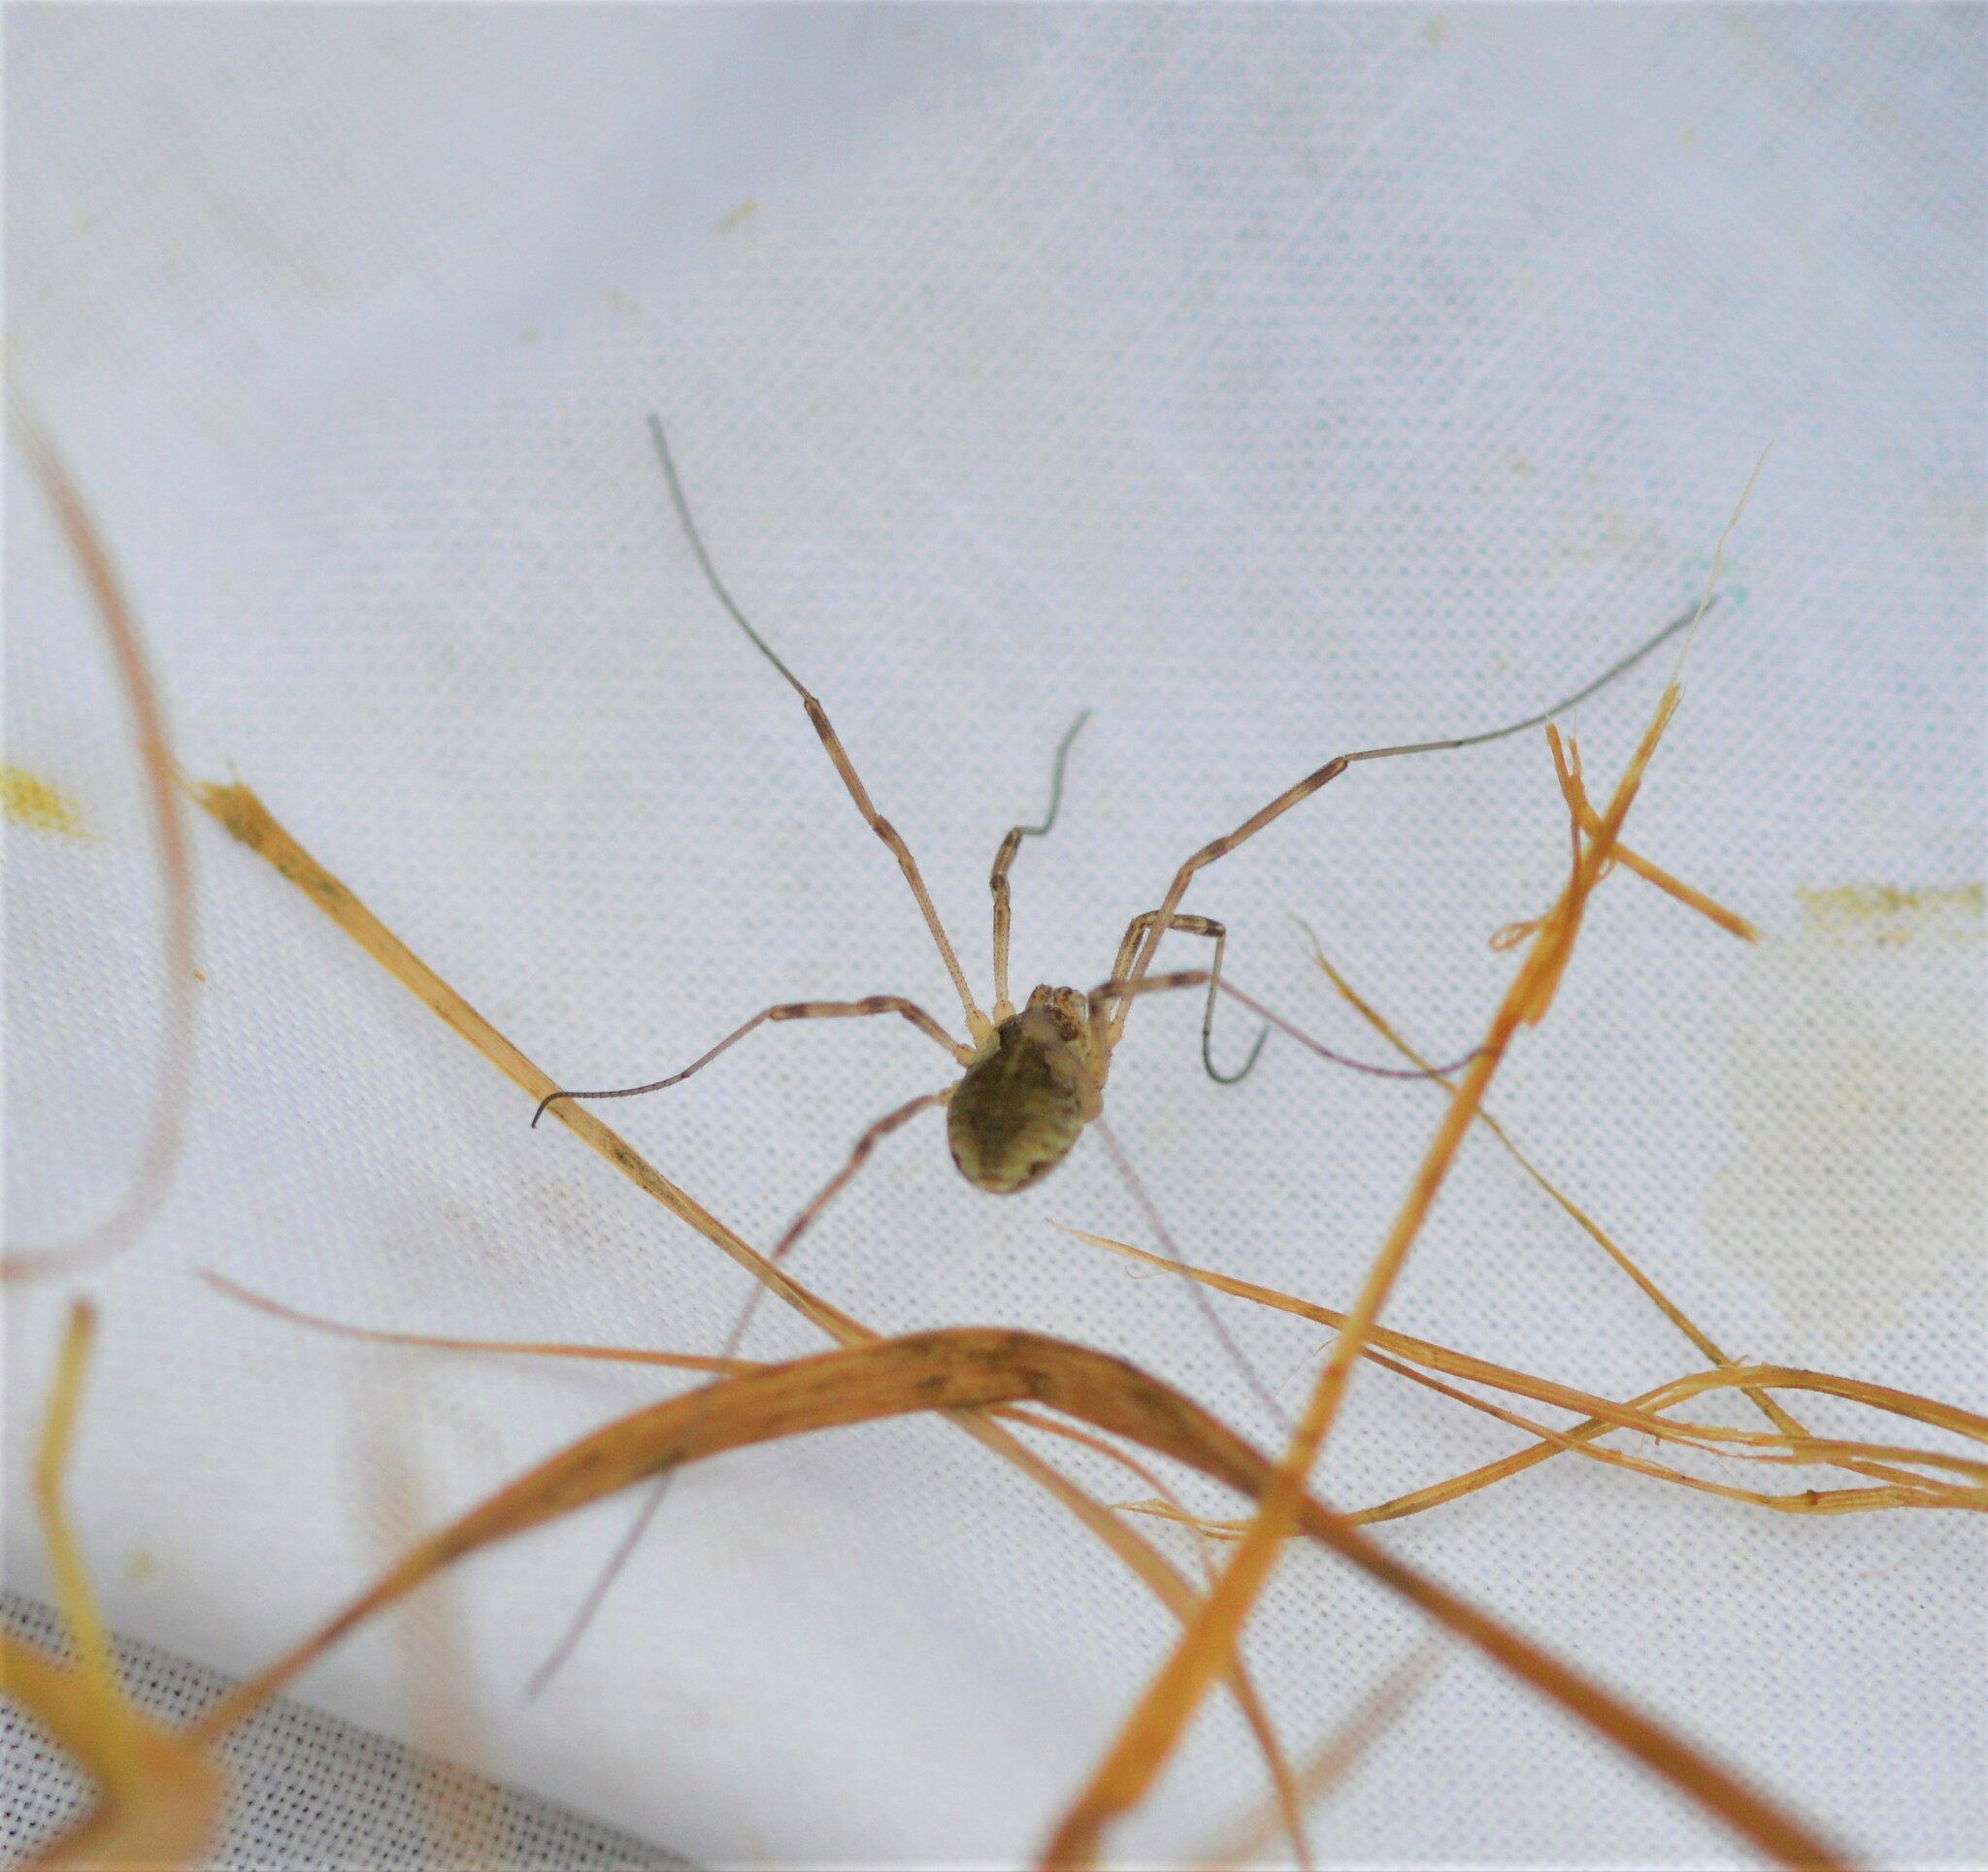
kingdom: Animalia
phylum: Arthropoda
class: Arachnida
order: Opiliones
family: Phalangiidae
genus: Mitopus
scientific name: Mitopus morio
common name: Saddleback harvestman
